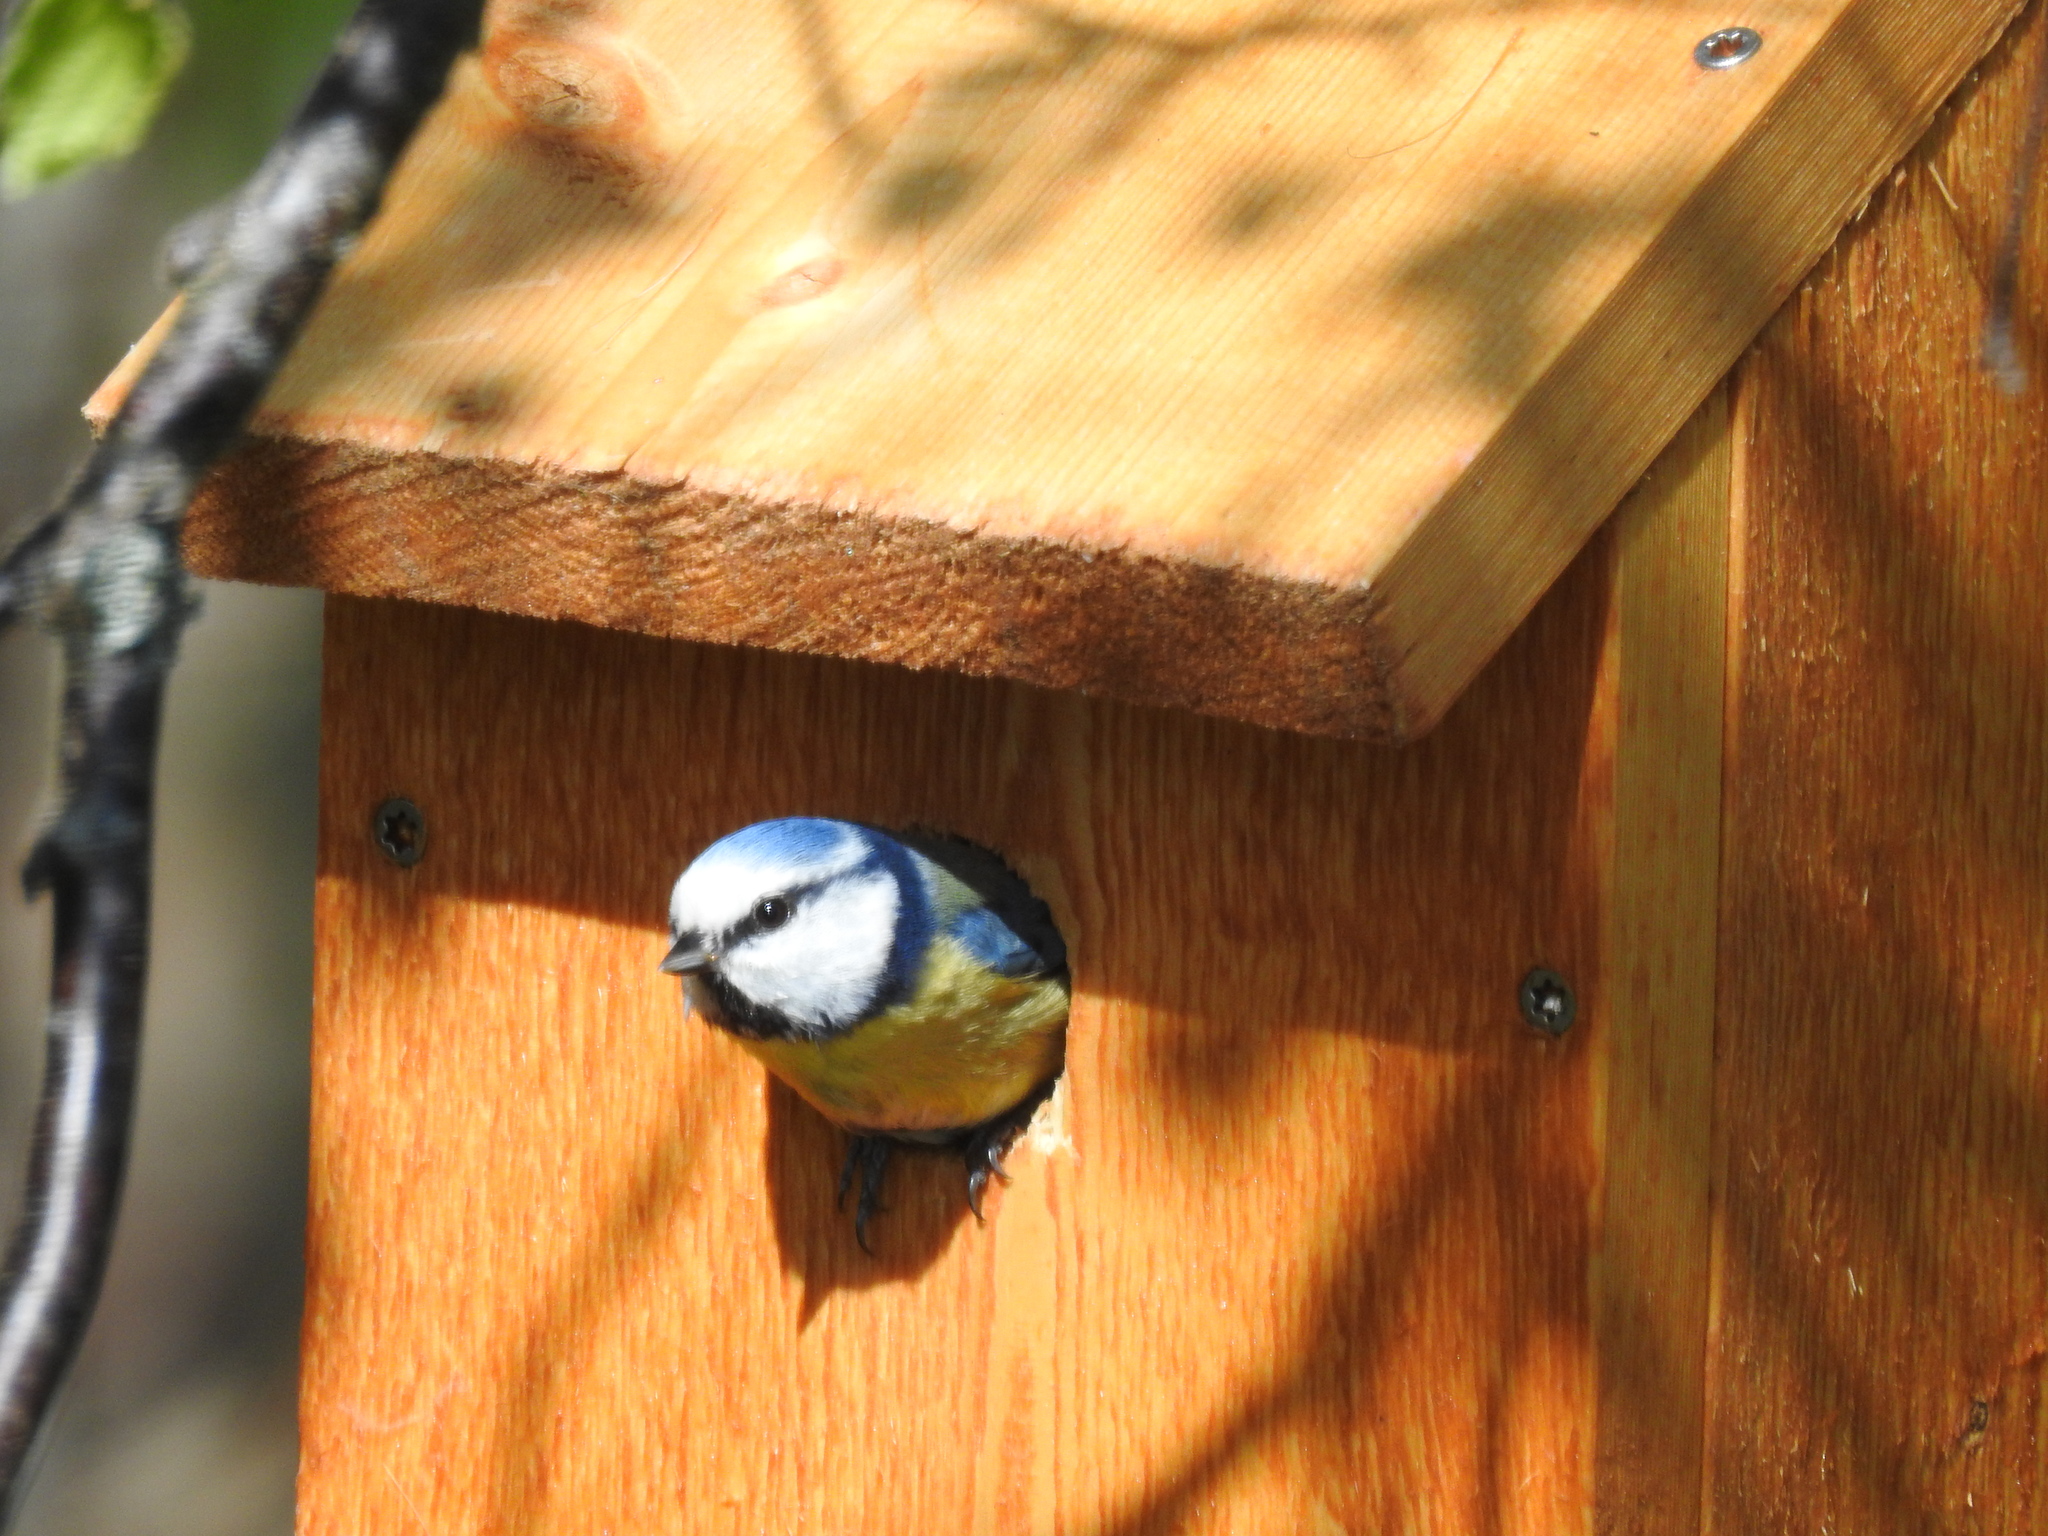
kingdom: Animalia
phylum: Chordata
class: Aves
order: Passeriformes
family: Paridae
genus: Cyanistes
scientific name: Cyanistes caeruleus
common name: Eurasian blue tit
